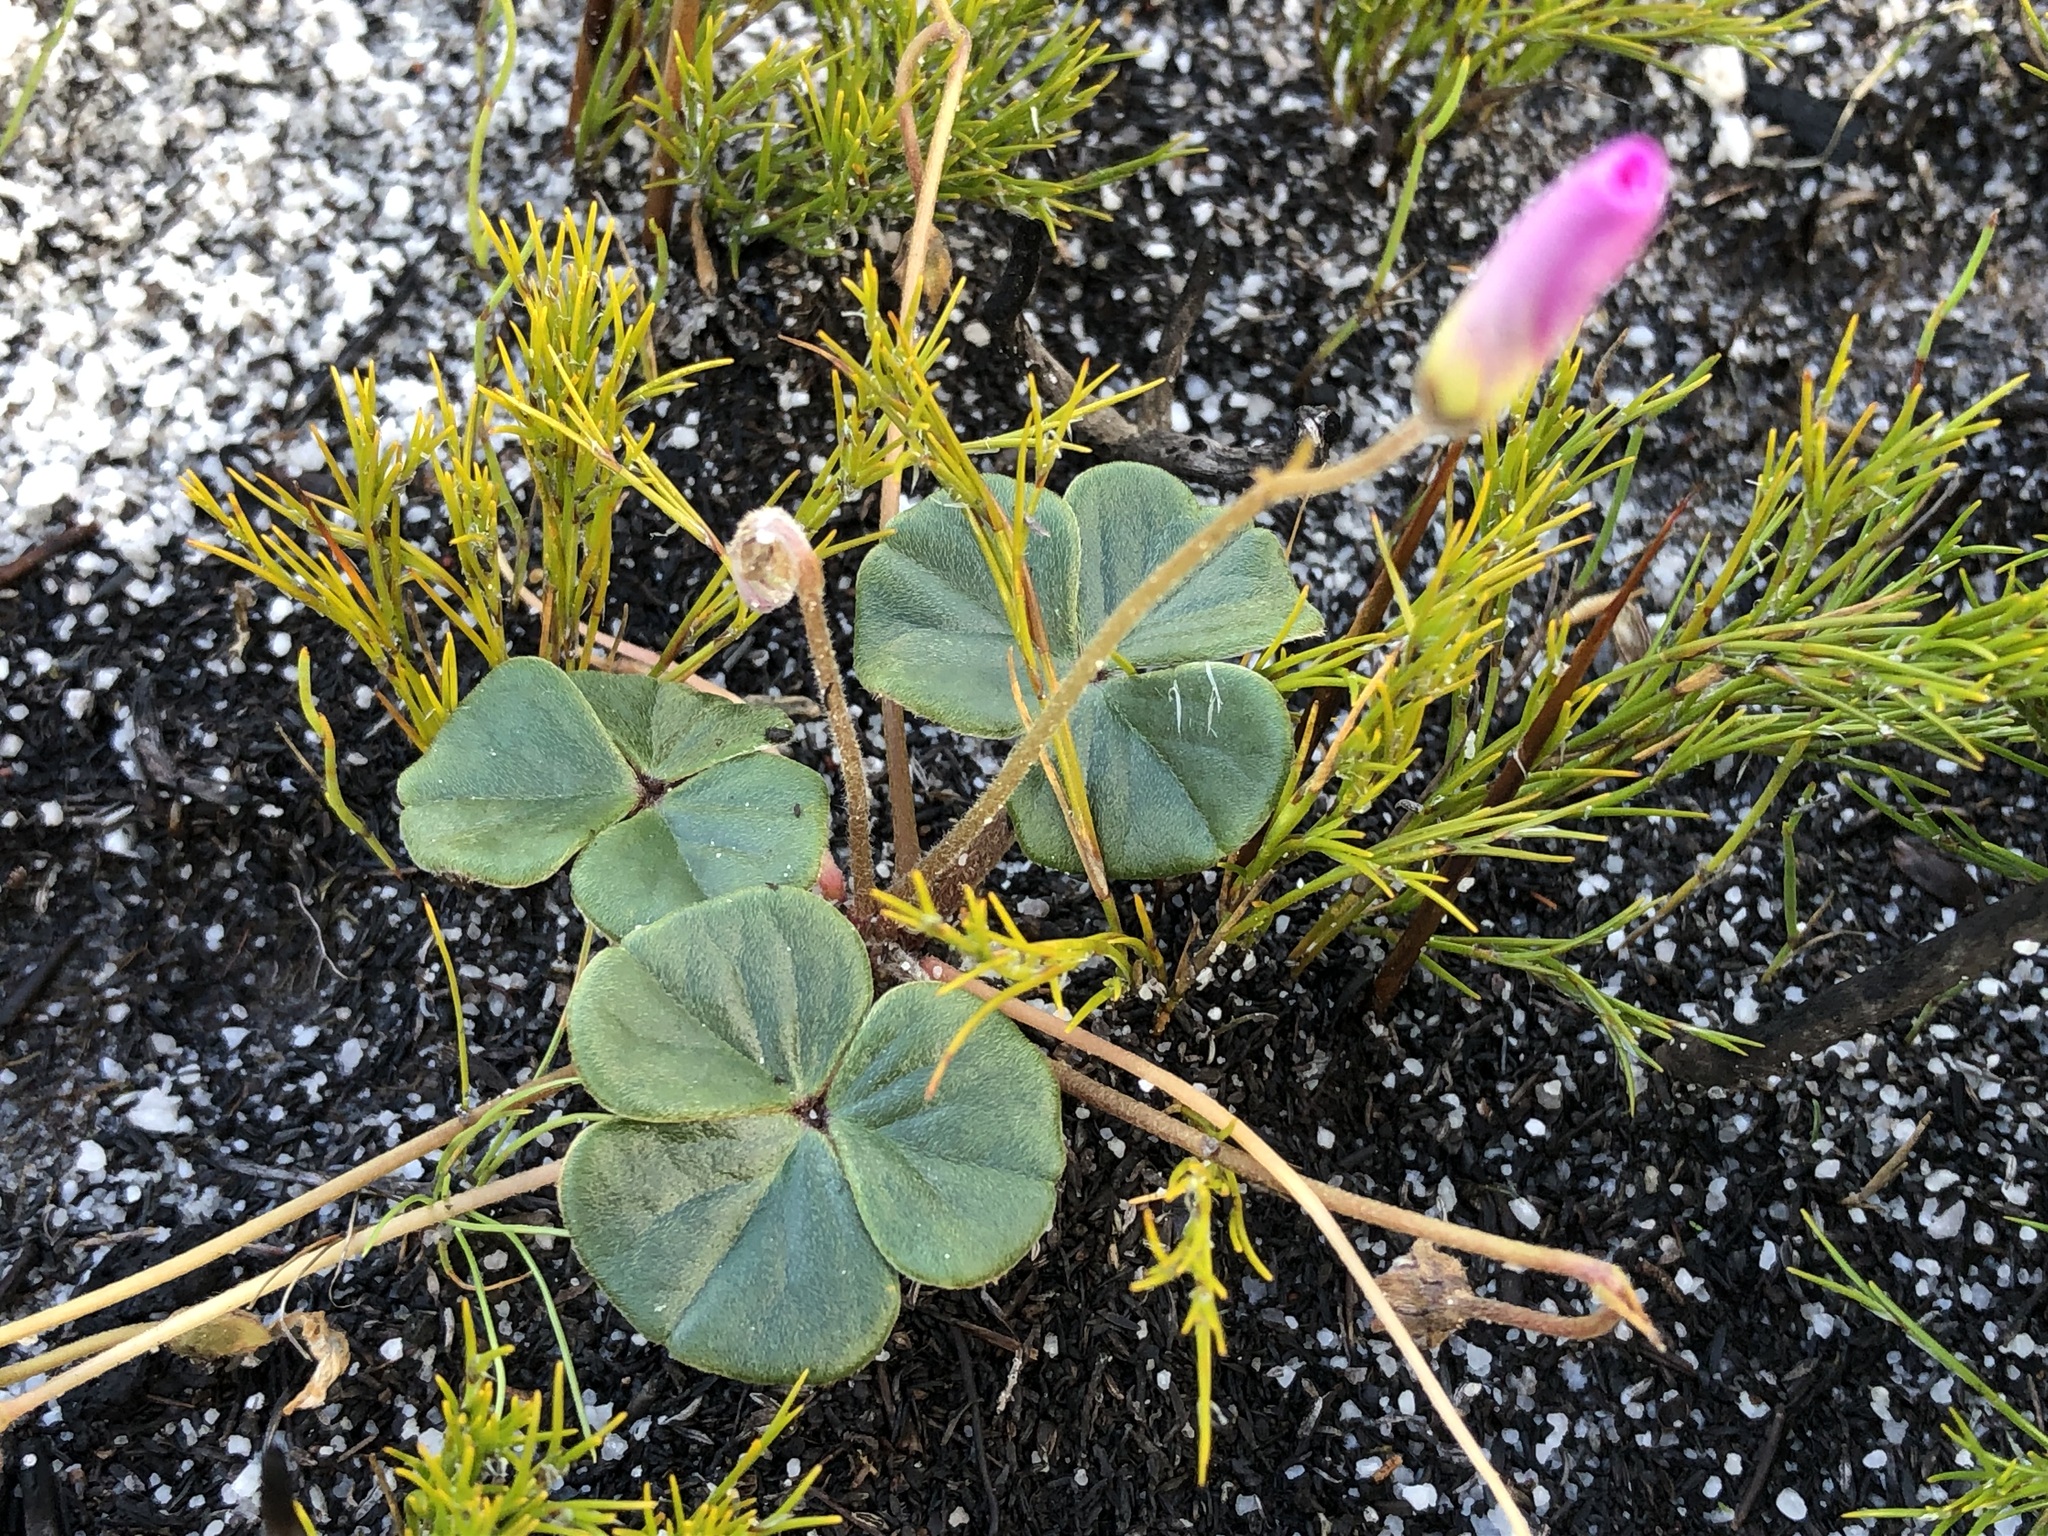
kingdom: Plantae
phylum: Tracheophyta
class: Magnoliopsida
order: Oxalidales
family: Oxalidaceae
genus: Oxalis
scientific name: Oxalis truncatula
